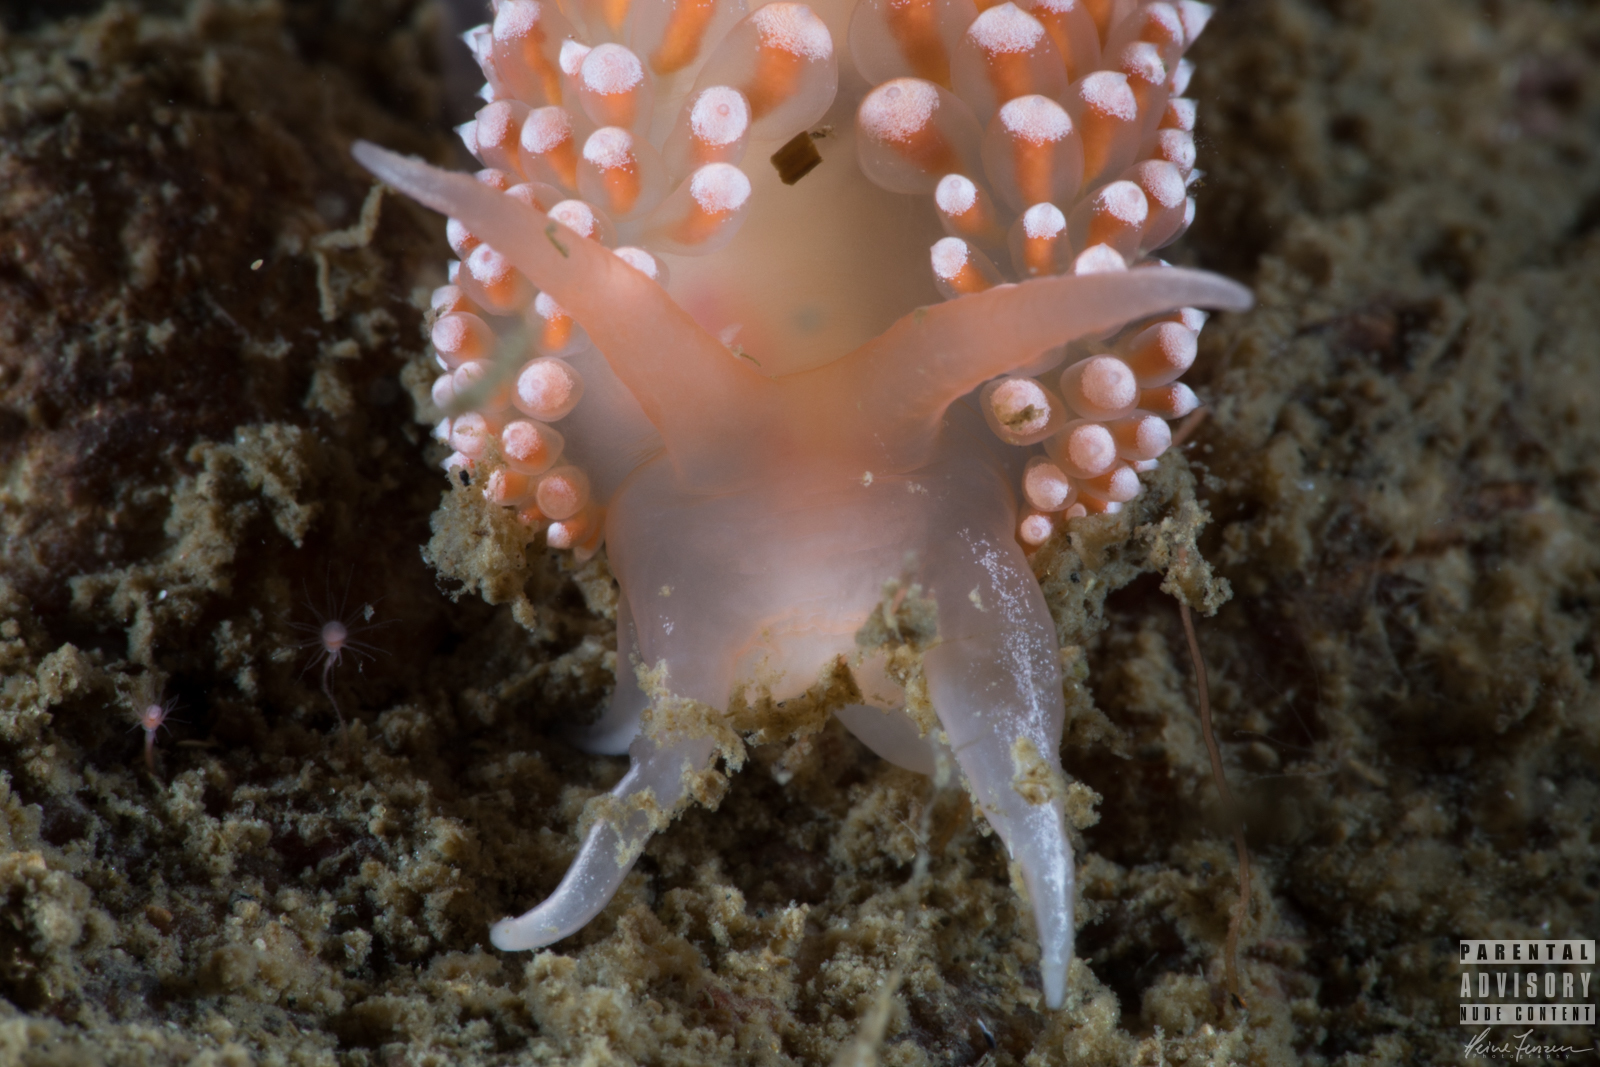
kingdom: Animalia
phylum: Mollusca
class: Gastropoda
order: Nudibranchia
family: Coryphellidae
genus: Coryphella
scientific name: Coryphella verrucosa
